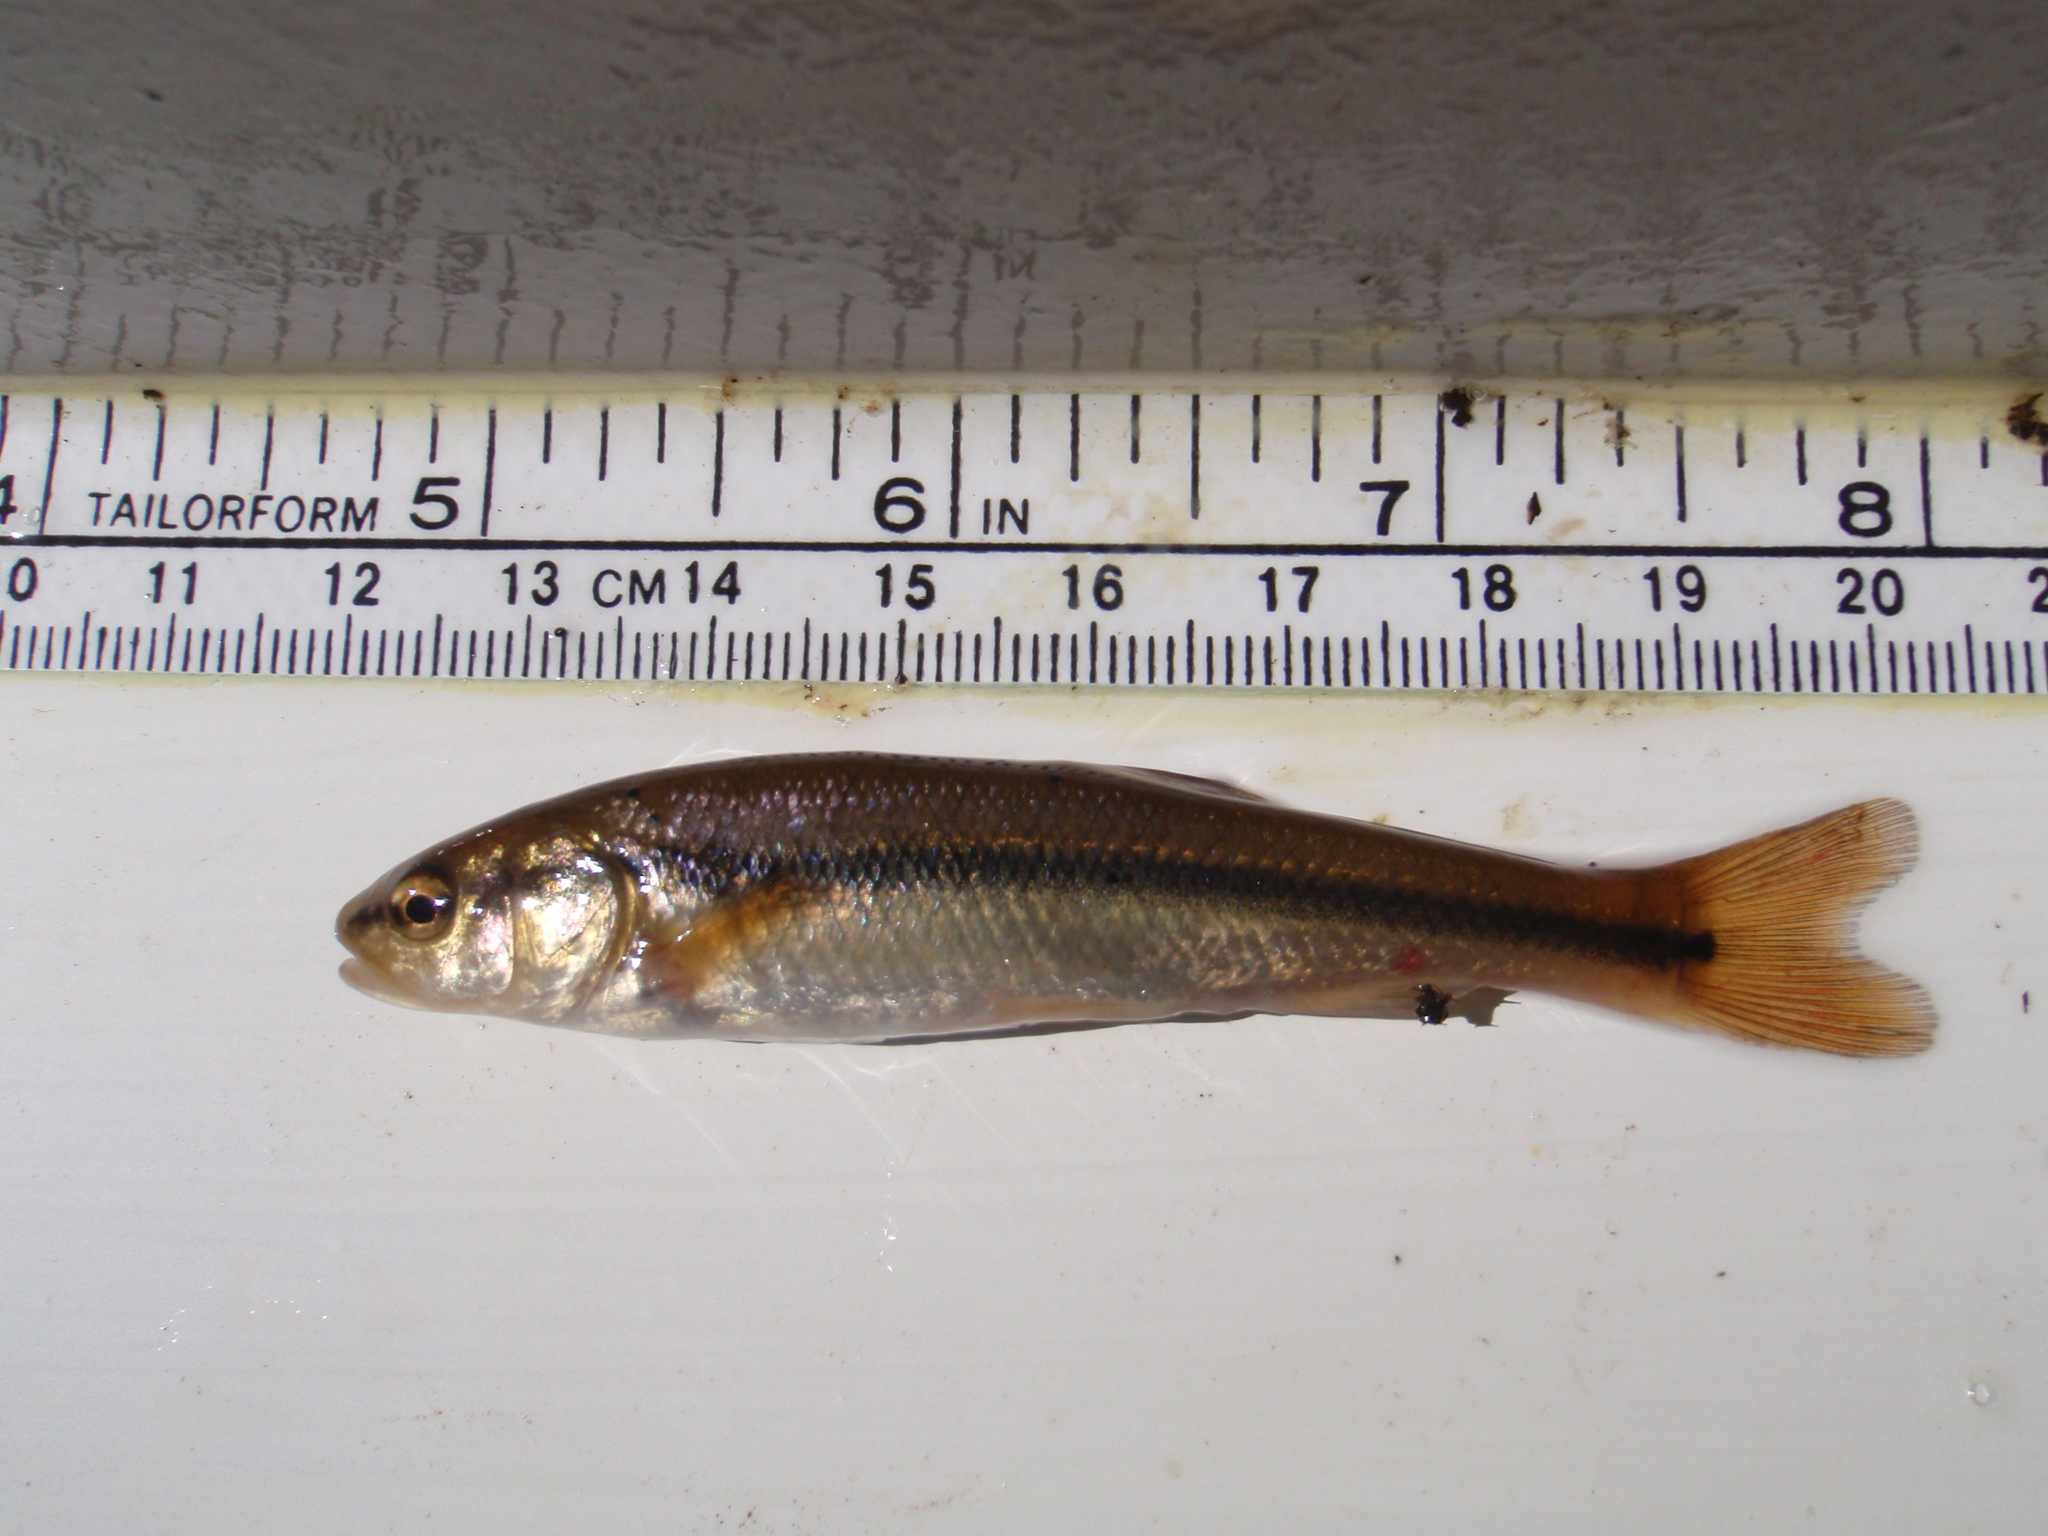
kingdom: Animalia
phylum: Chordata
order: Cypriniformes
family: Cyprinidae
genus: Semotilus
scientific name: Semotilus atromaculatus
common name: Creek chub
